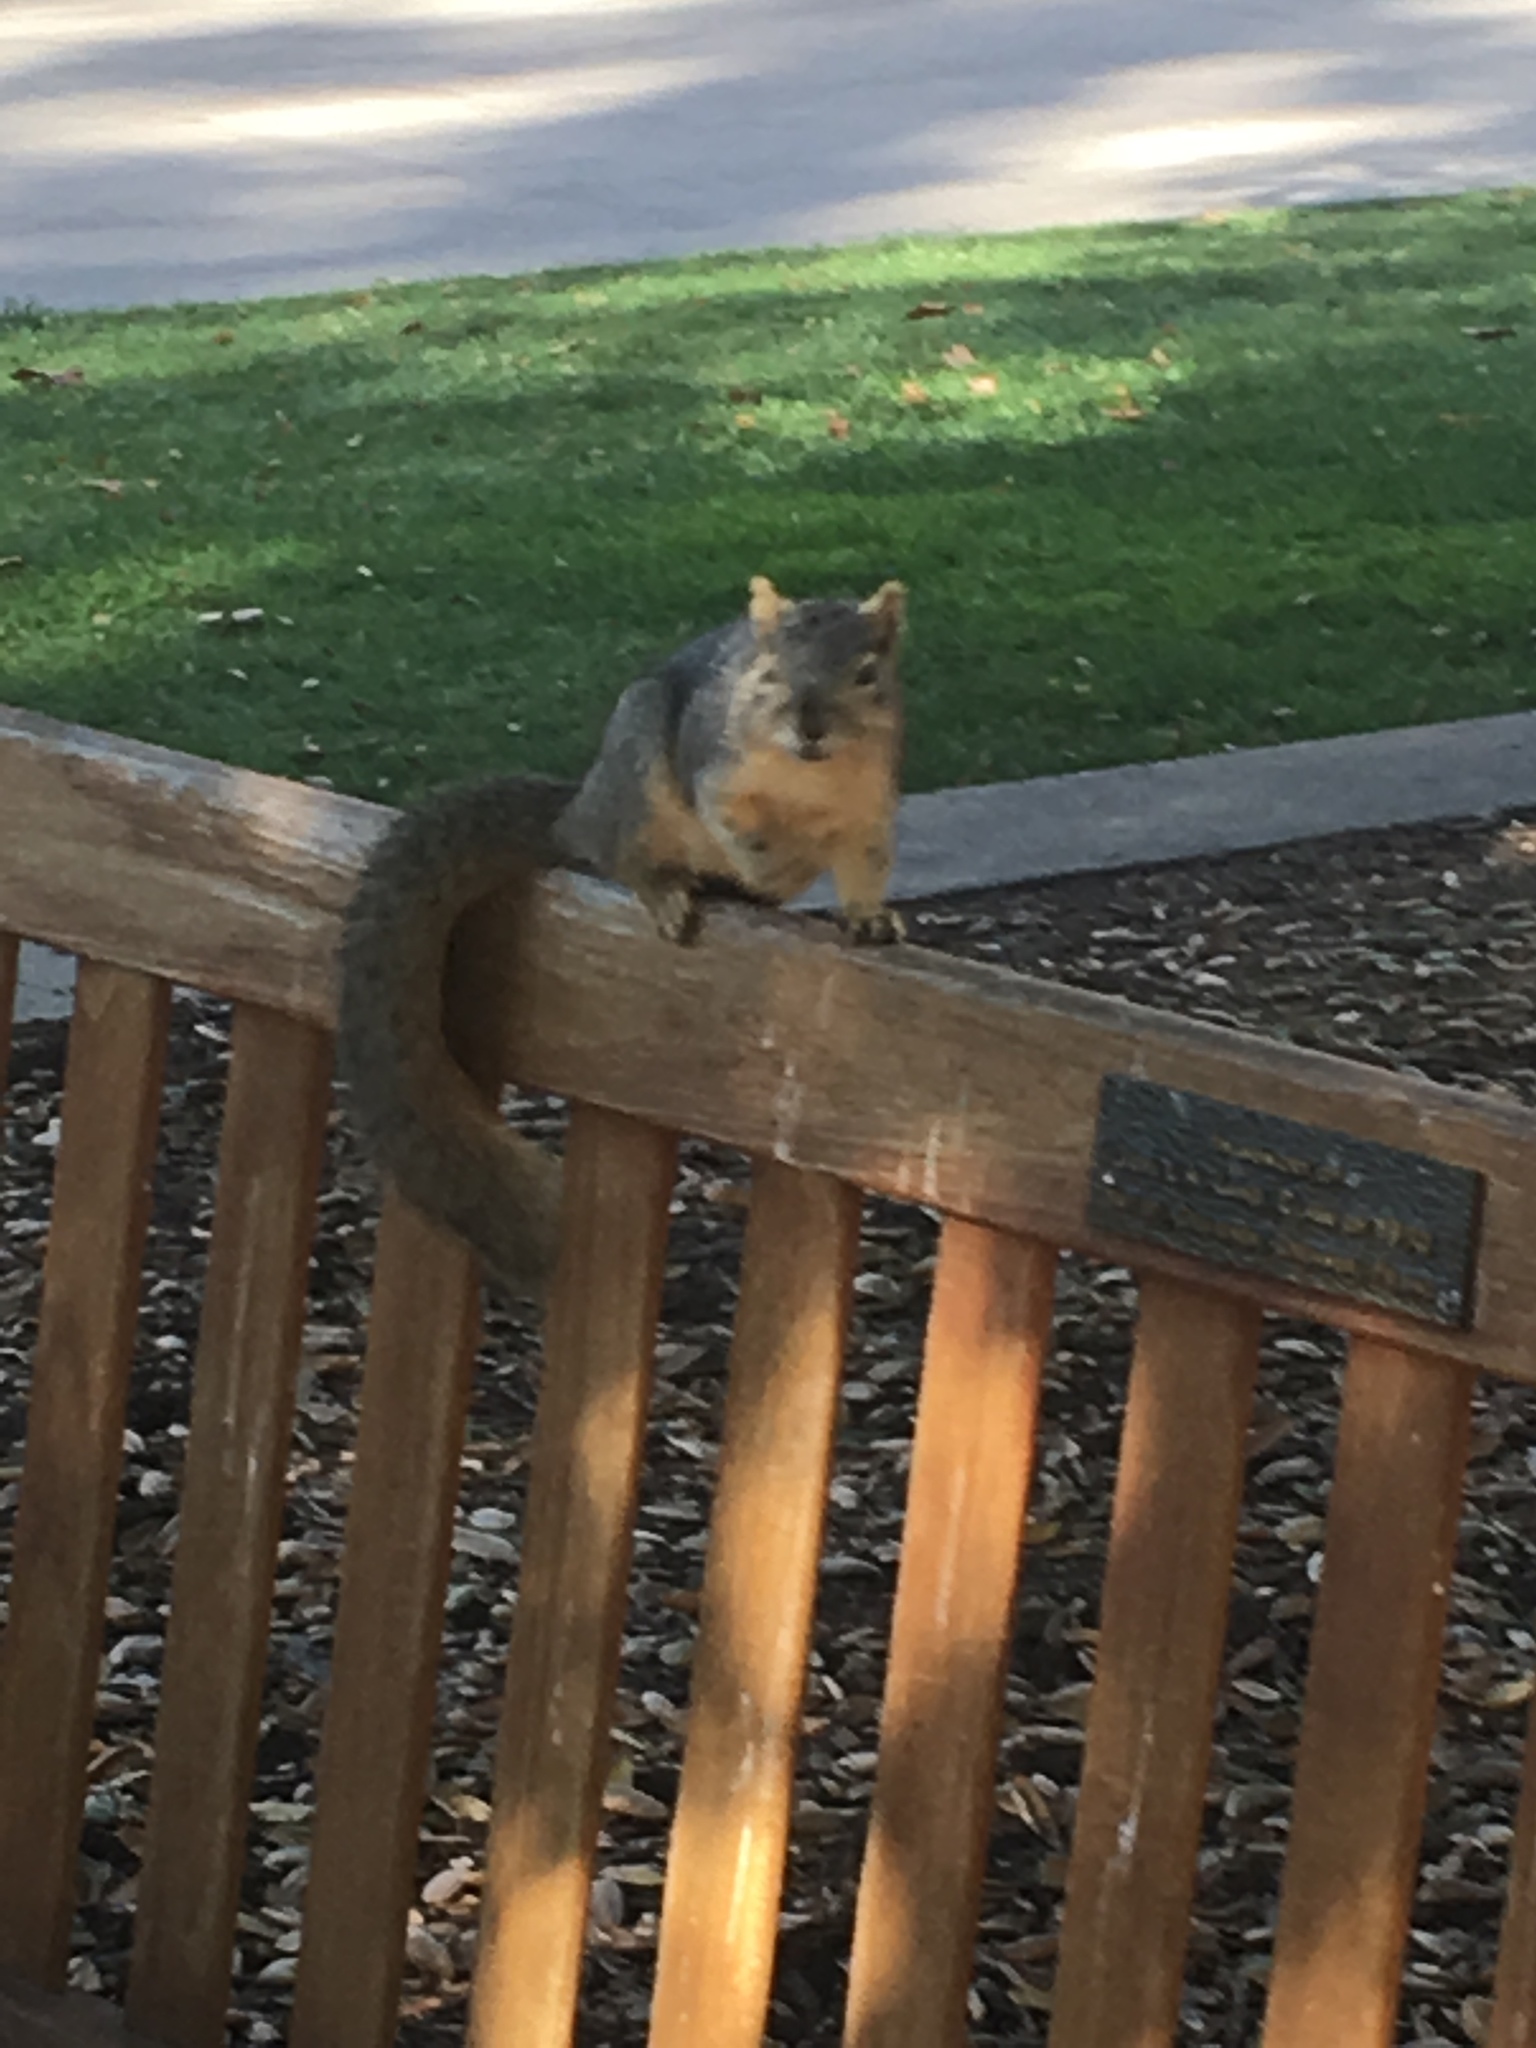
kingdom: Animalia
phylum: Chordata
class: Mammalia
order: Rodentia
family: Sciuridae
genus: Sciurus
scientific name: Sciurus niger
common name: Fox squirrel
